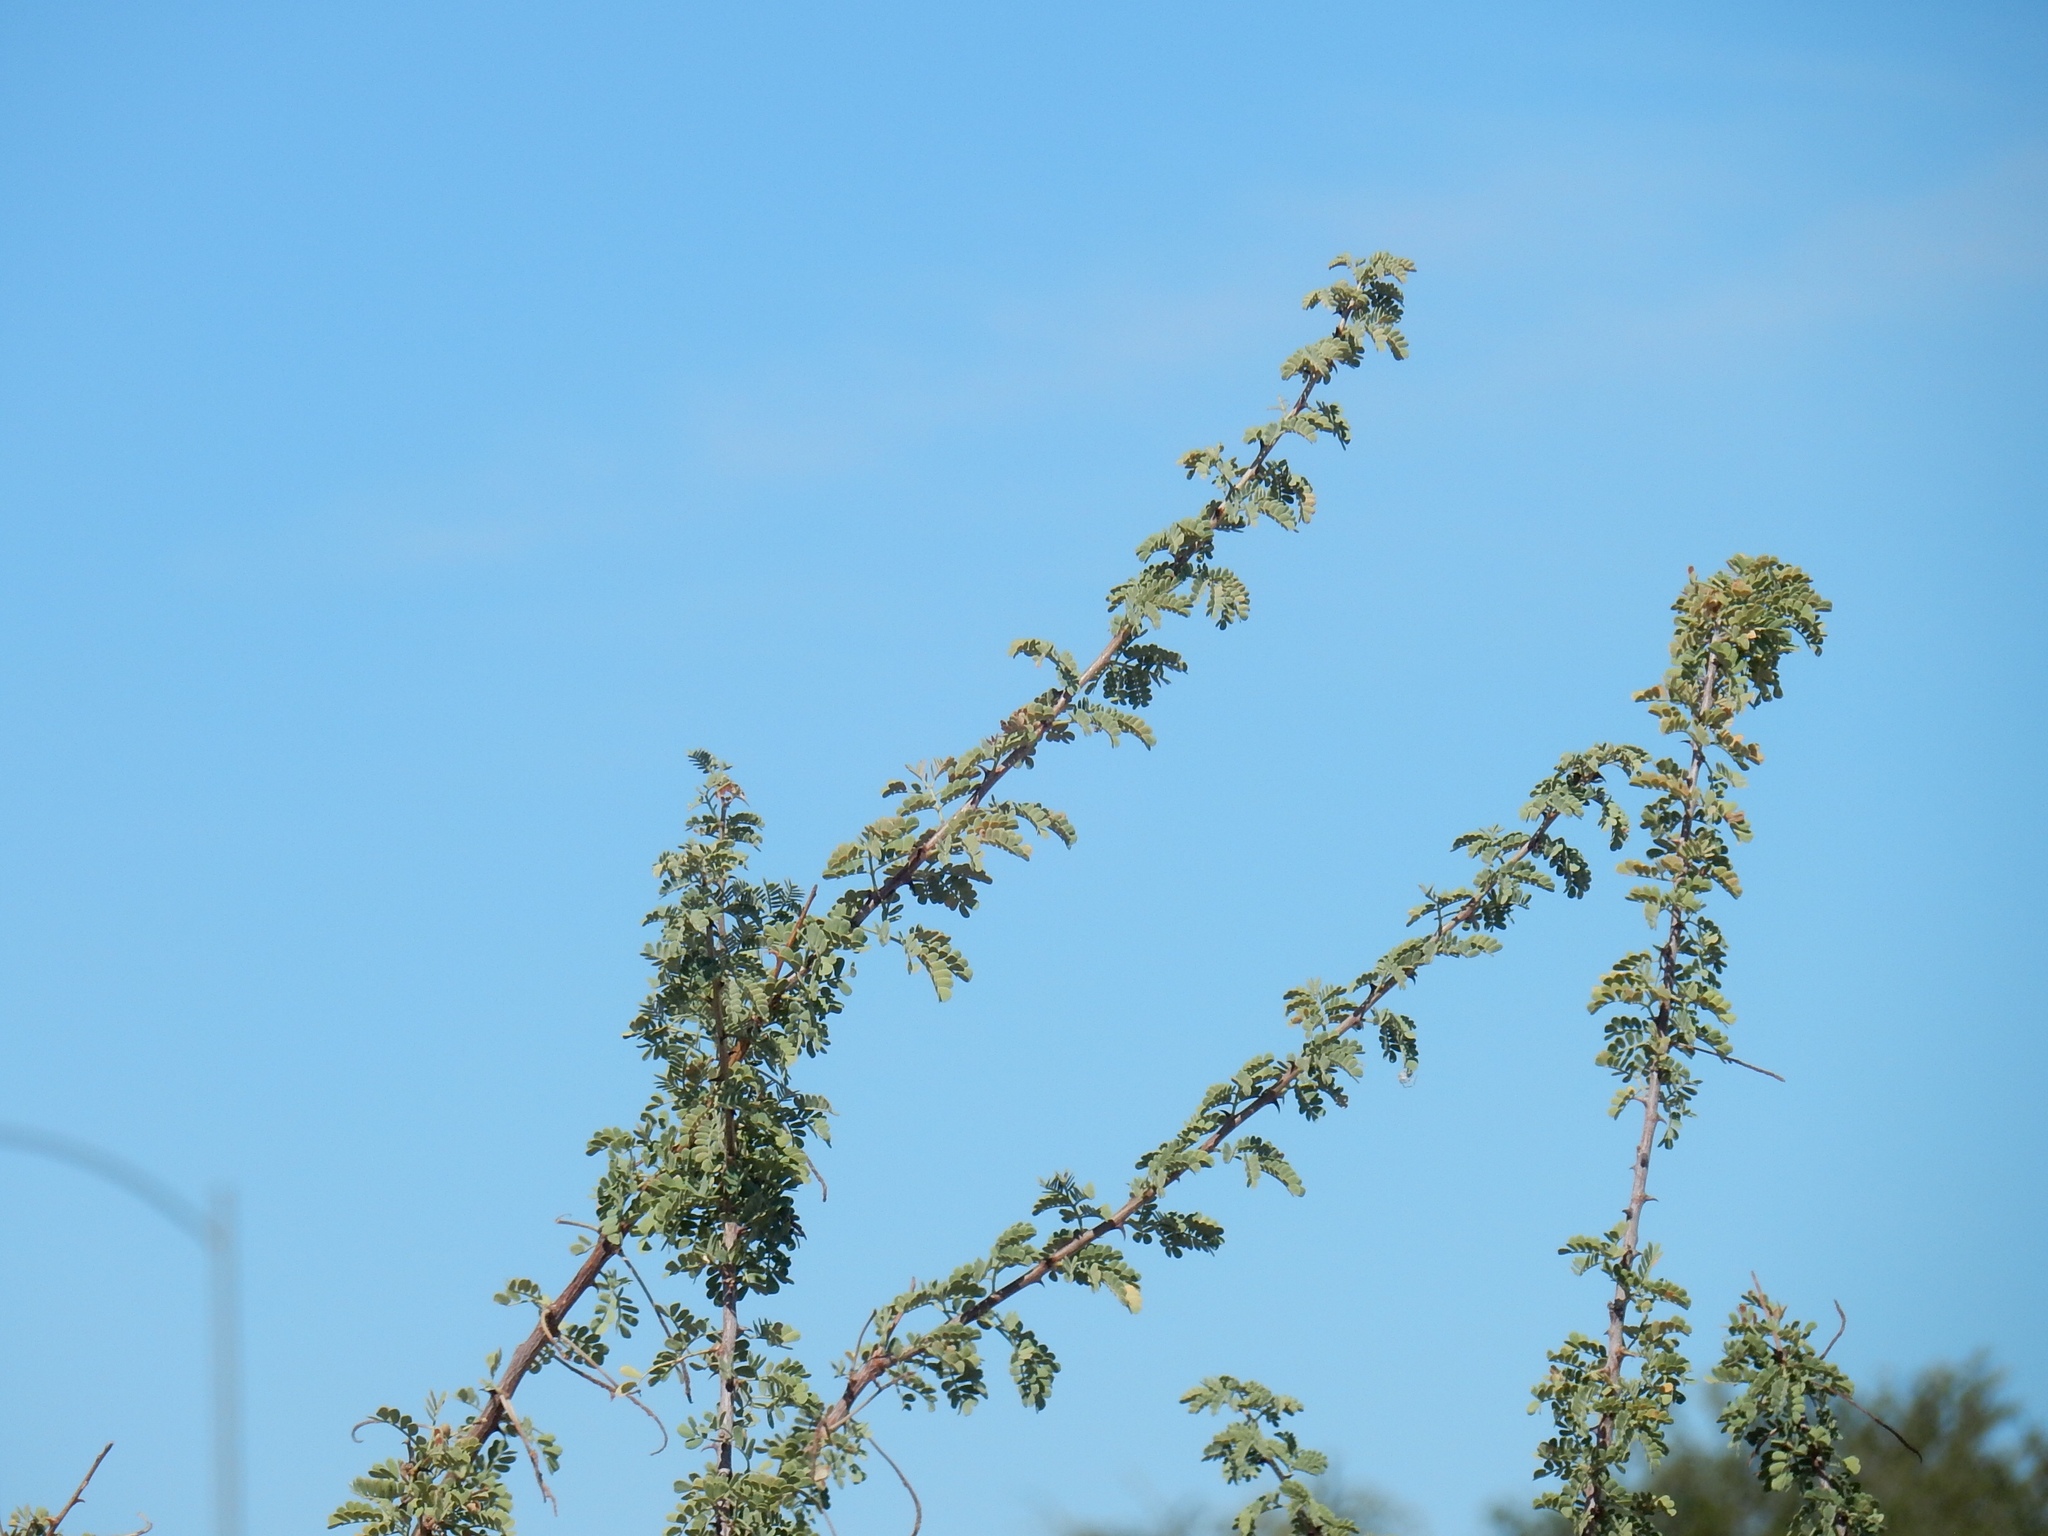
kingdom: Plantae
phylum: Tracheophyta
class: Magnoliopsida
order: Fabales
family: Fabaceae
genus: Senegalia
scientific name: Senegalia greggii
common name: Texas-mimosa
